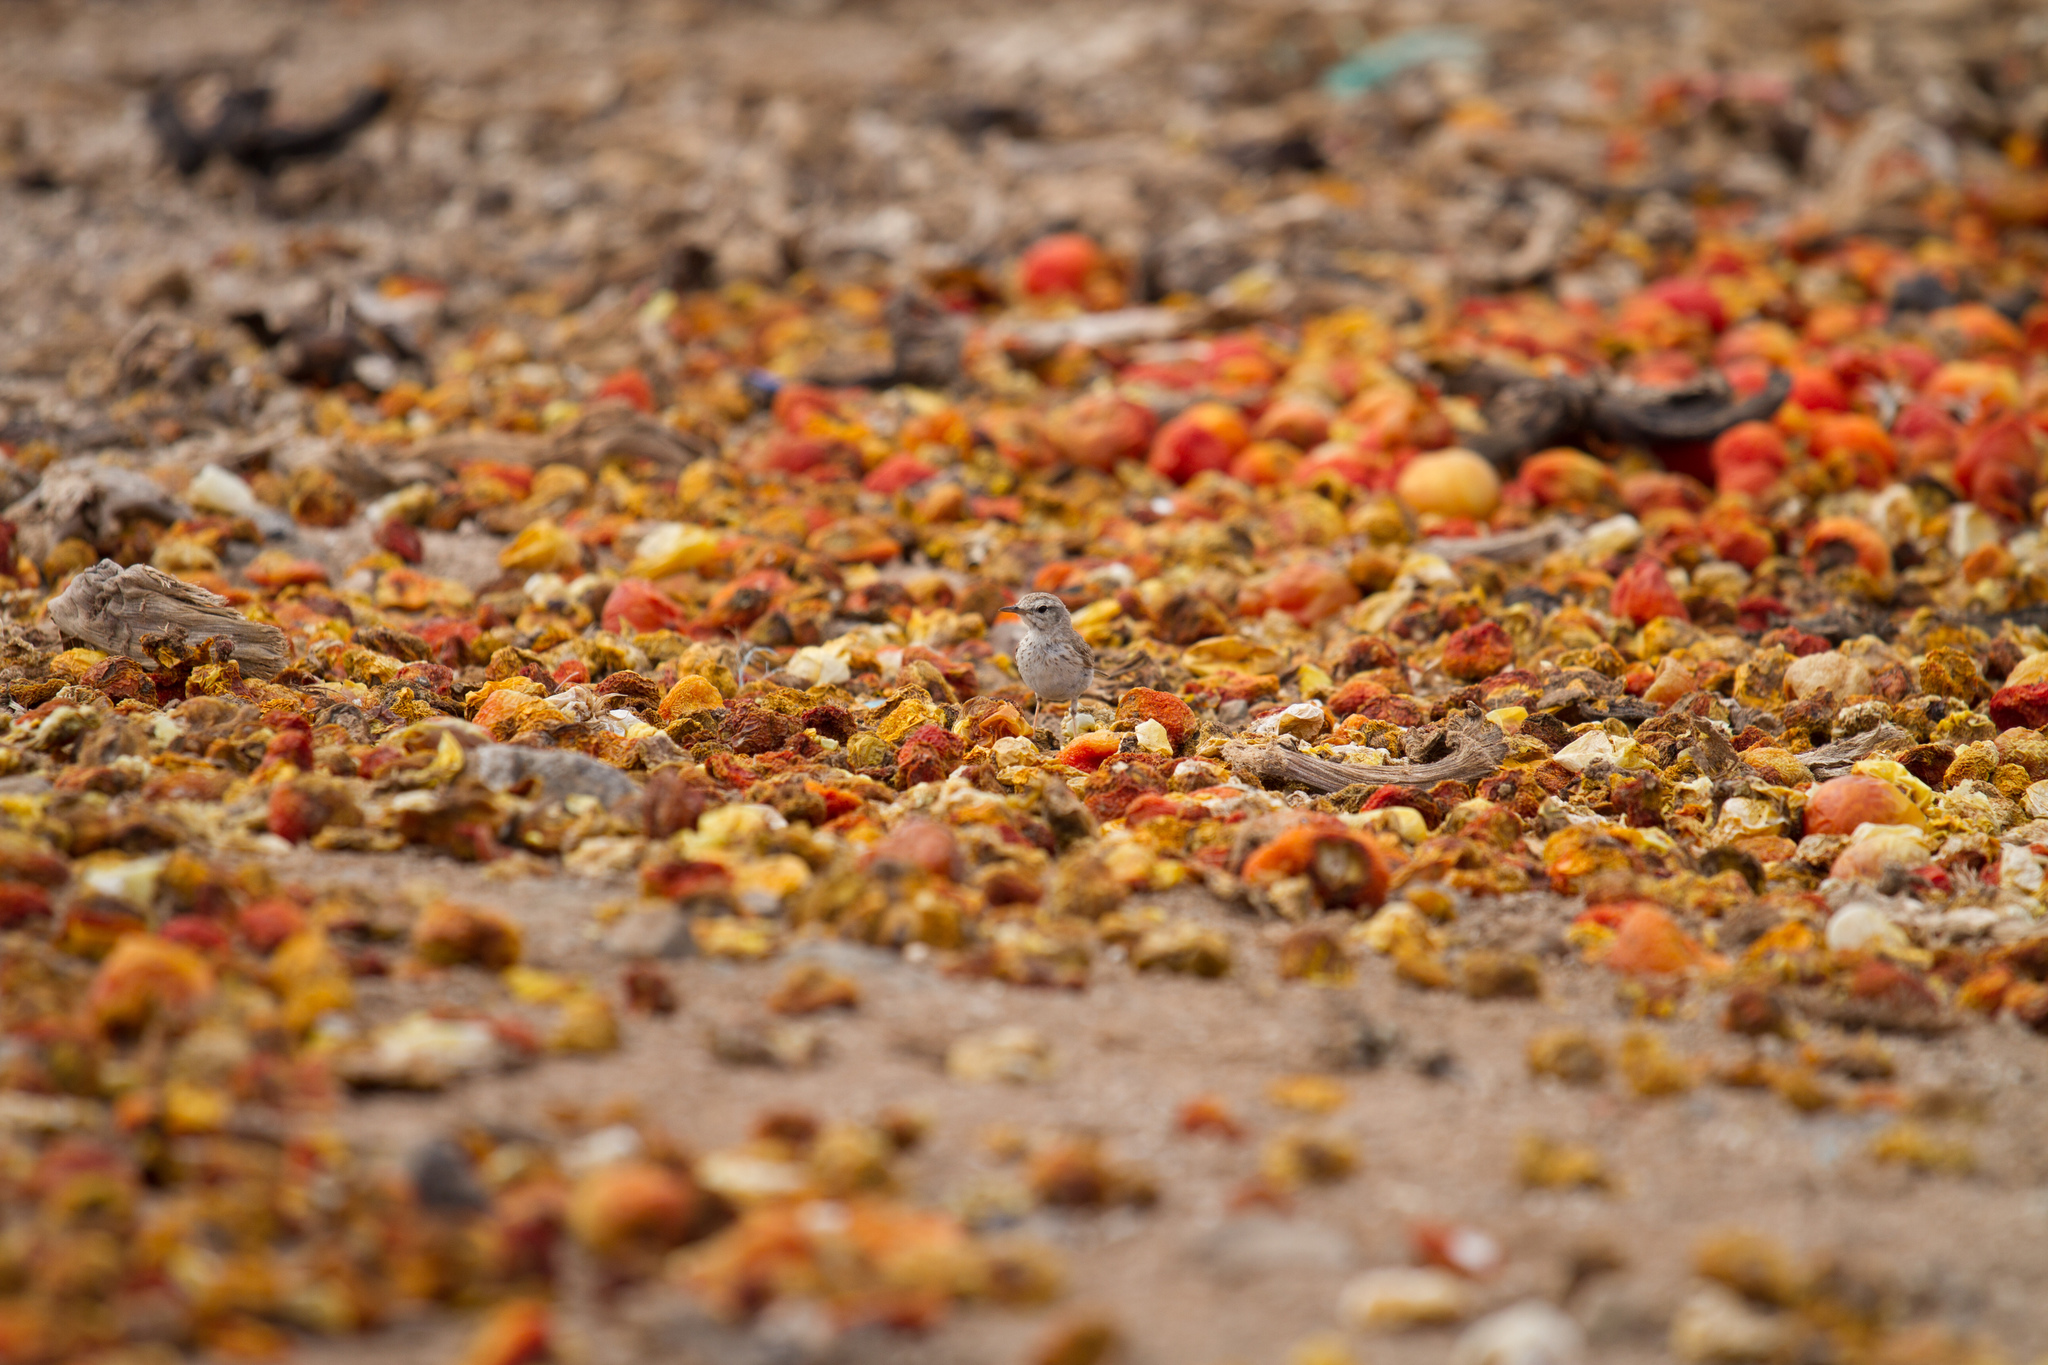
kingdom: Animalia
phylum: Chordata
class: Aves
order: Passeriformes
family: Motacillidae
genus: Anthus
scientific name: Anthus berthelotii
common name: Berthelot's pipit
